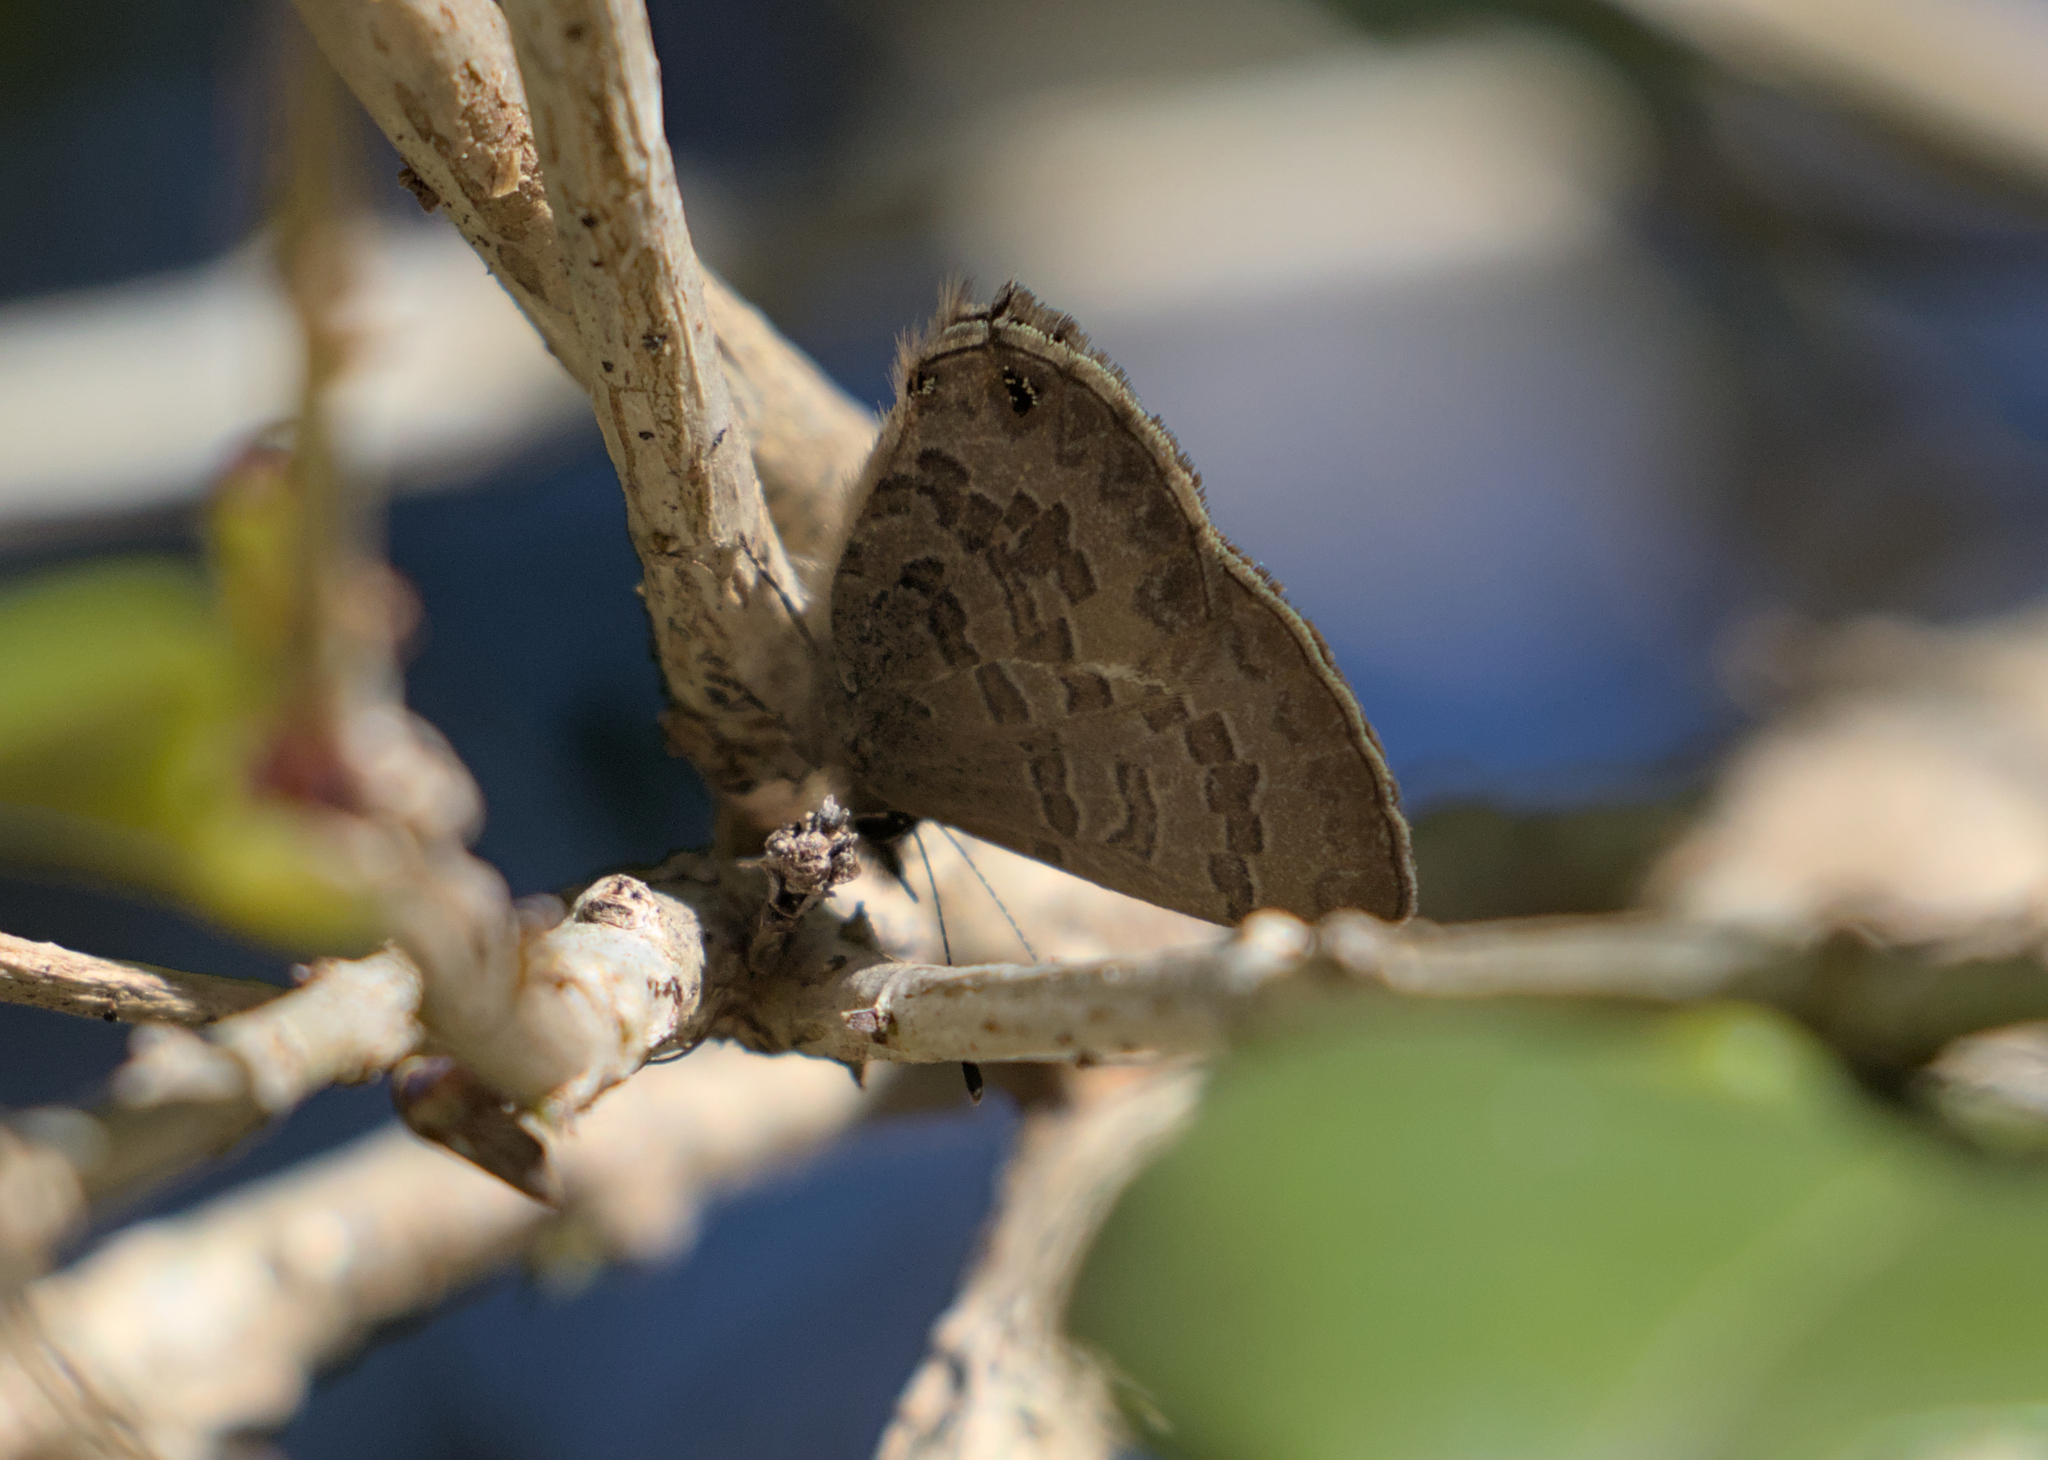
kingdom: Animalia
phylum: Arthropoda
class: Insecta
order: Lepidoptera
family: Lycaenidae
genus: Prosotas
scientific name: Prosotas felderi
